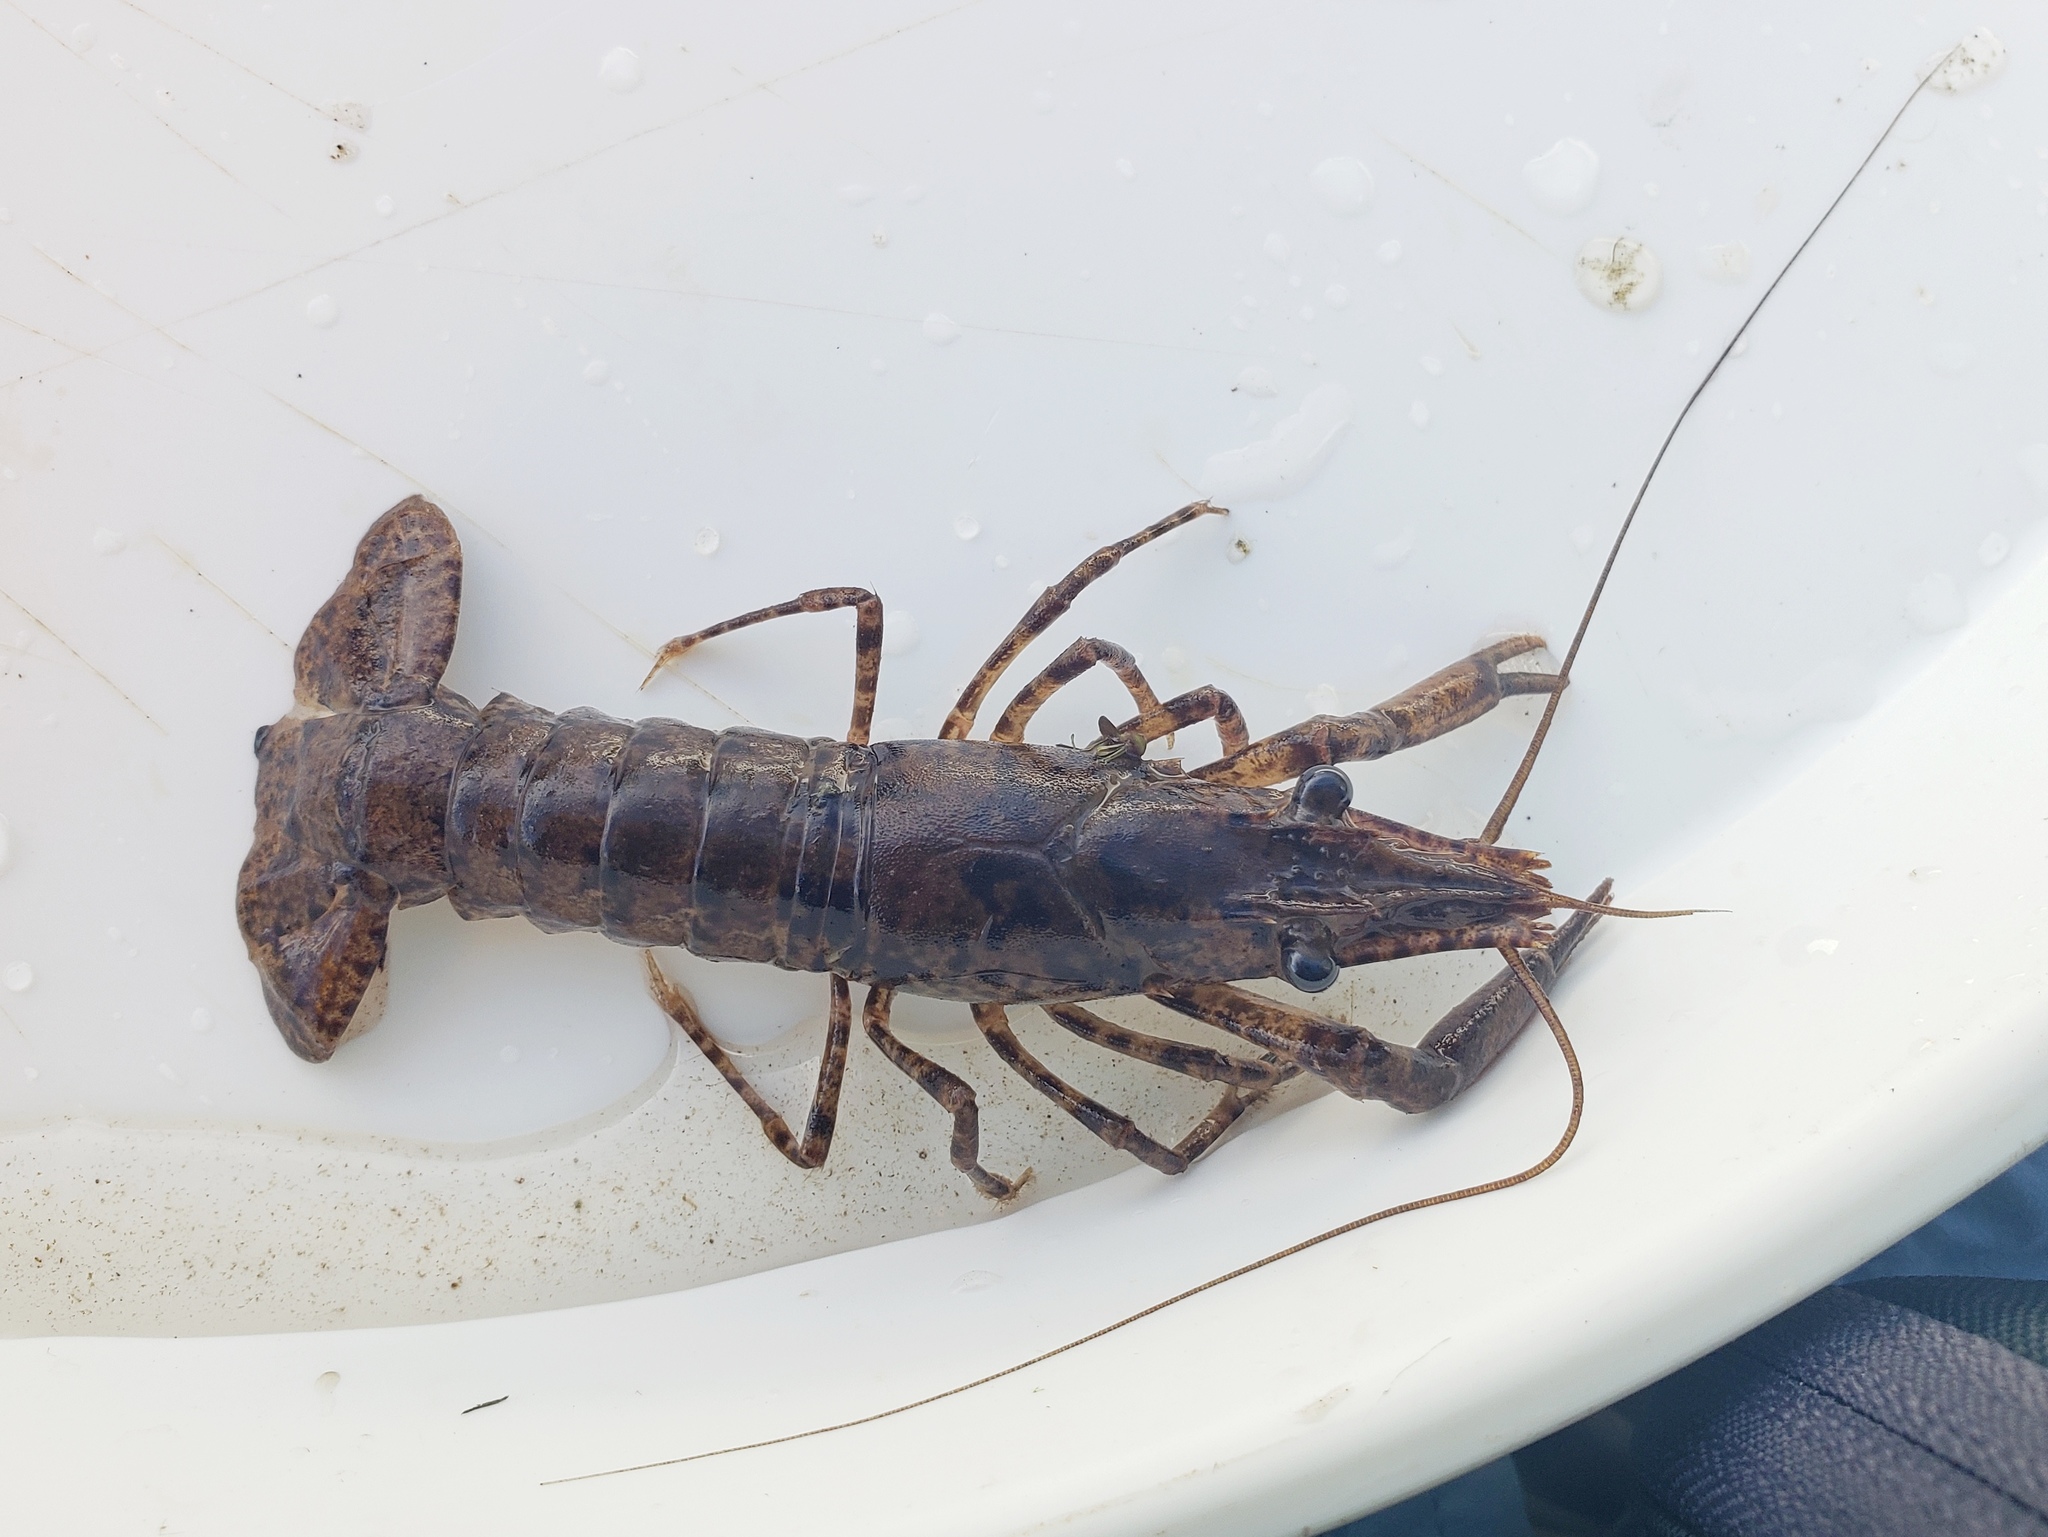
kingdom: Animalia
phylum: Arthropoda
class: Malacostraca
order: Decapoda
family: Cambaridae
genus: Faxonius
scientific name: Faxonius lancifer
